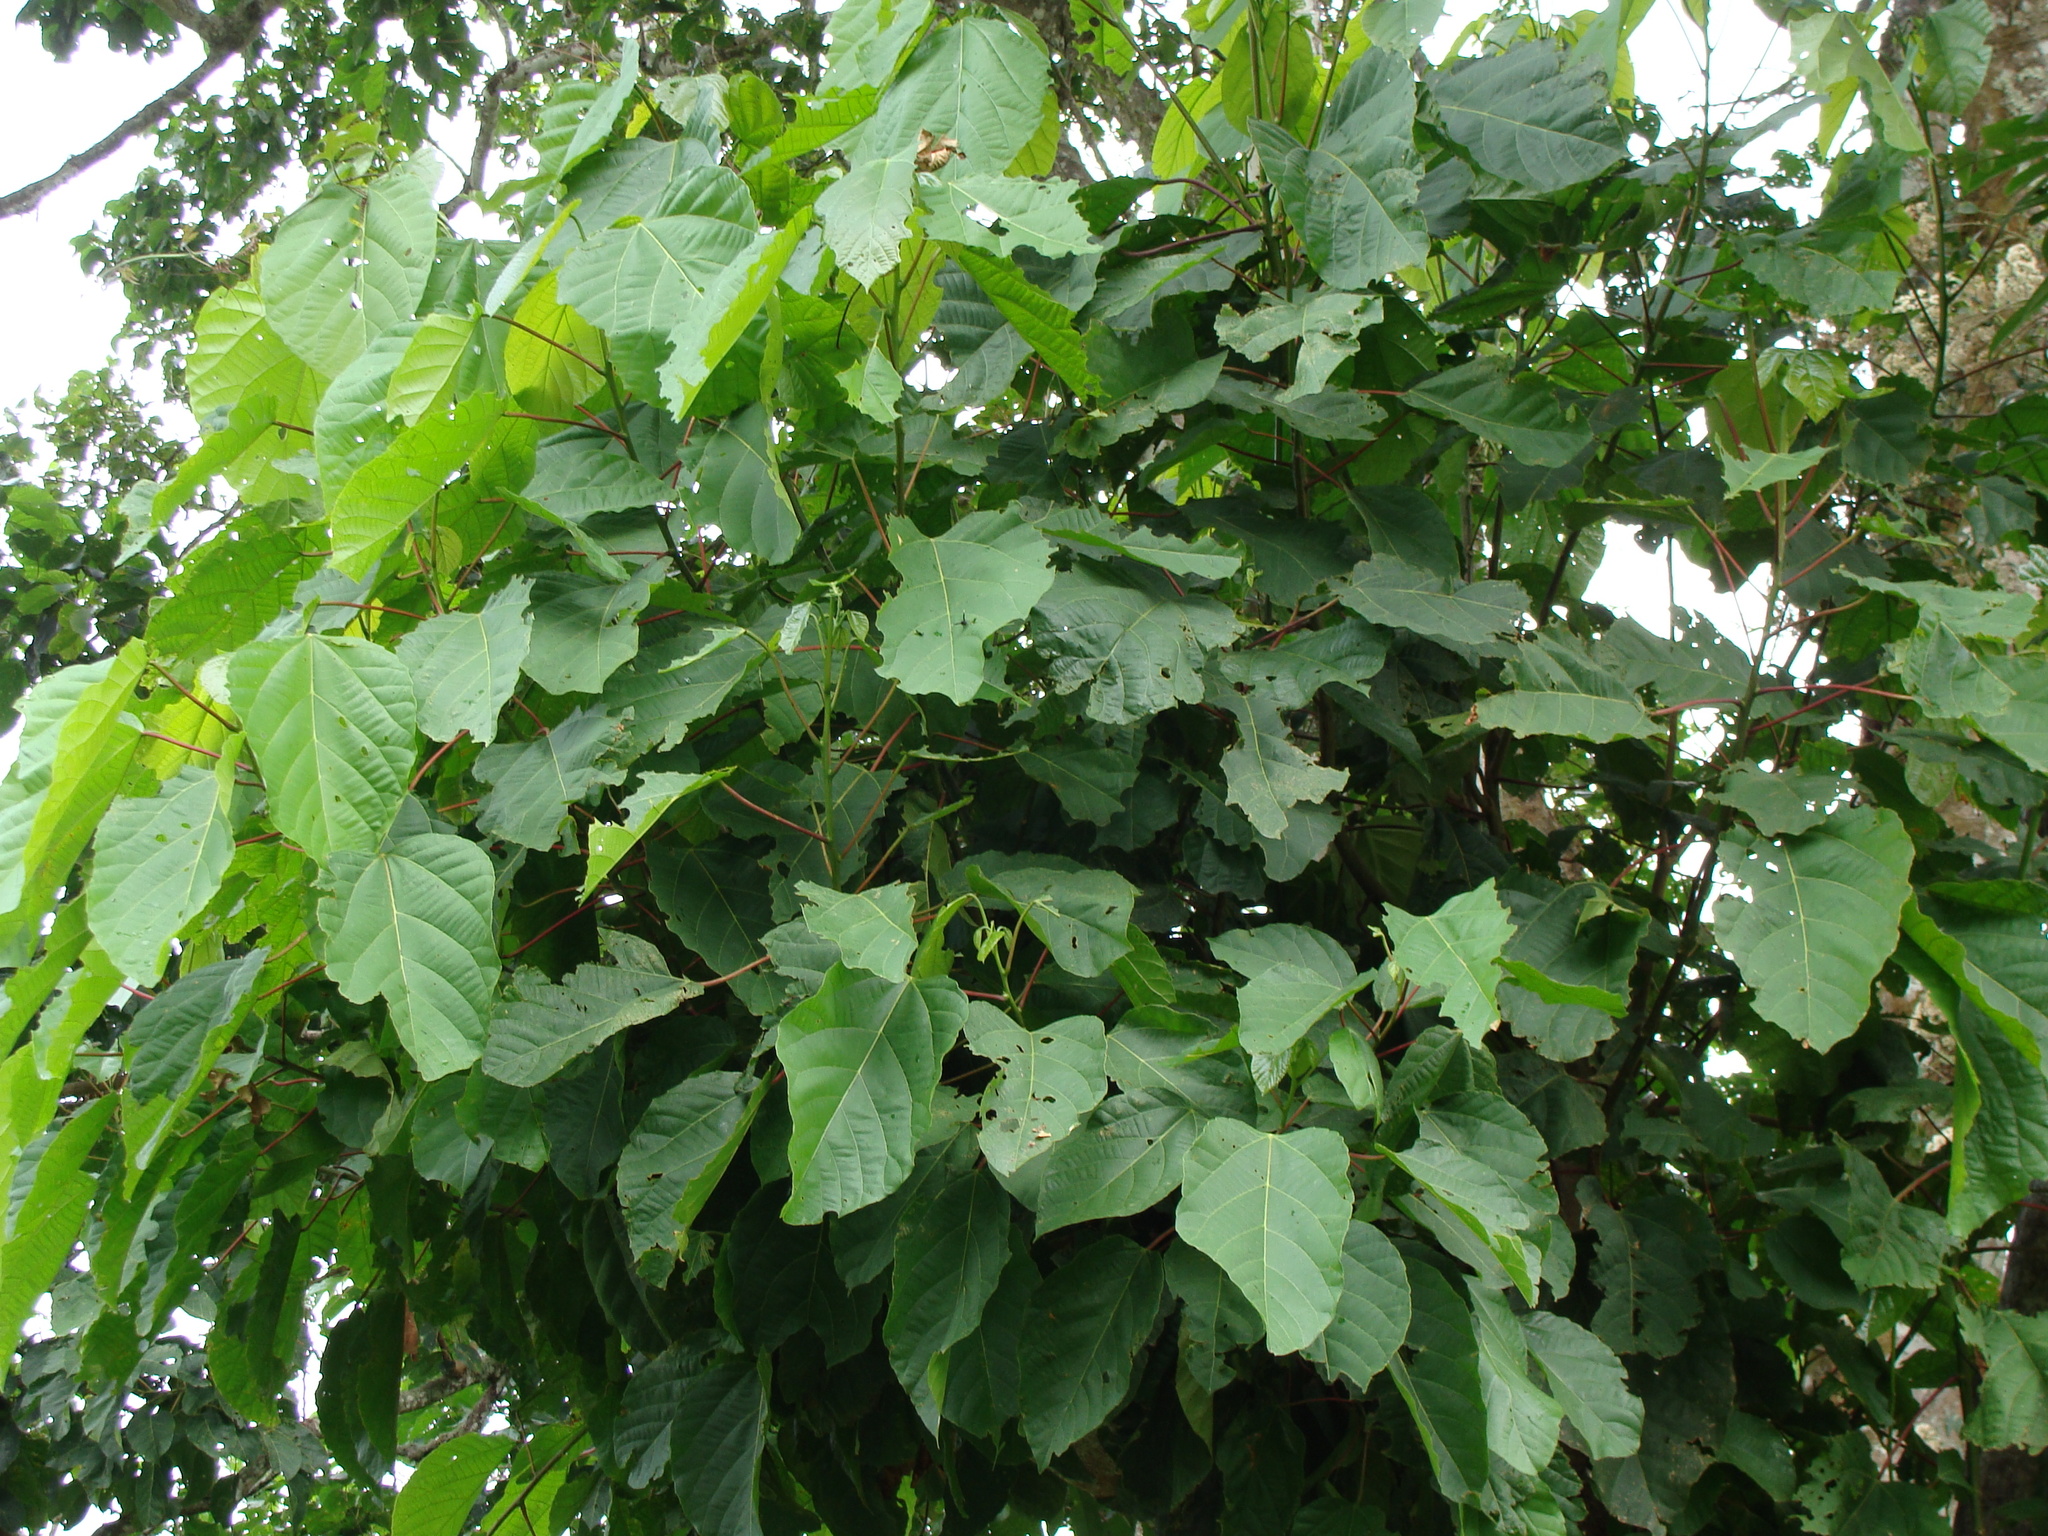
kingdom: Plantae
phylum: Tracheophyta
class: Magnoliopsida
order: Malpighiales
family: Euphorbiaceae
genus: Alchornea
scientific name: Alchornea latifolia
